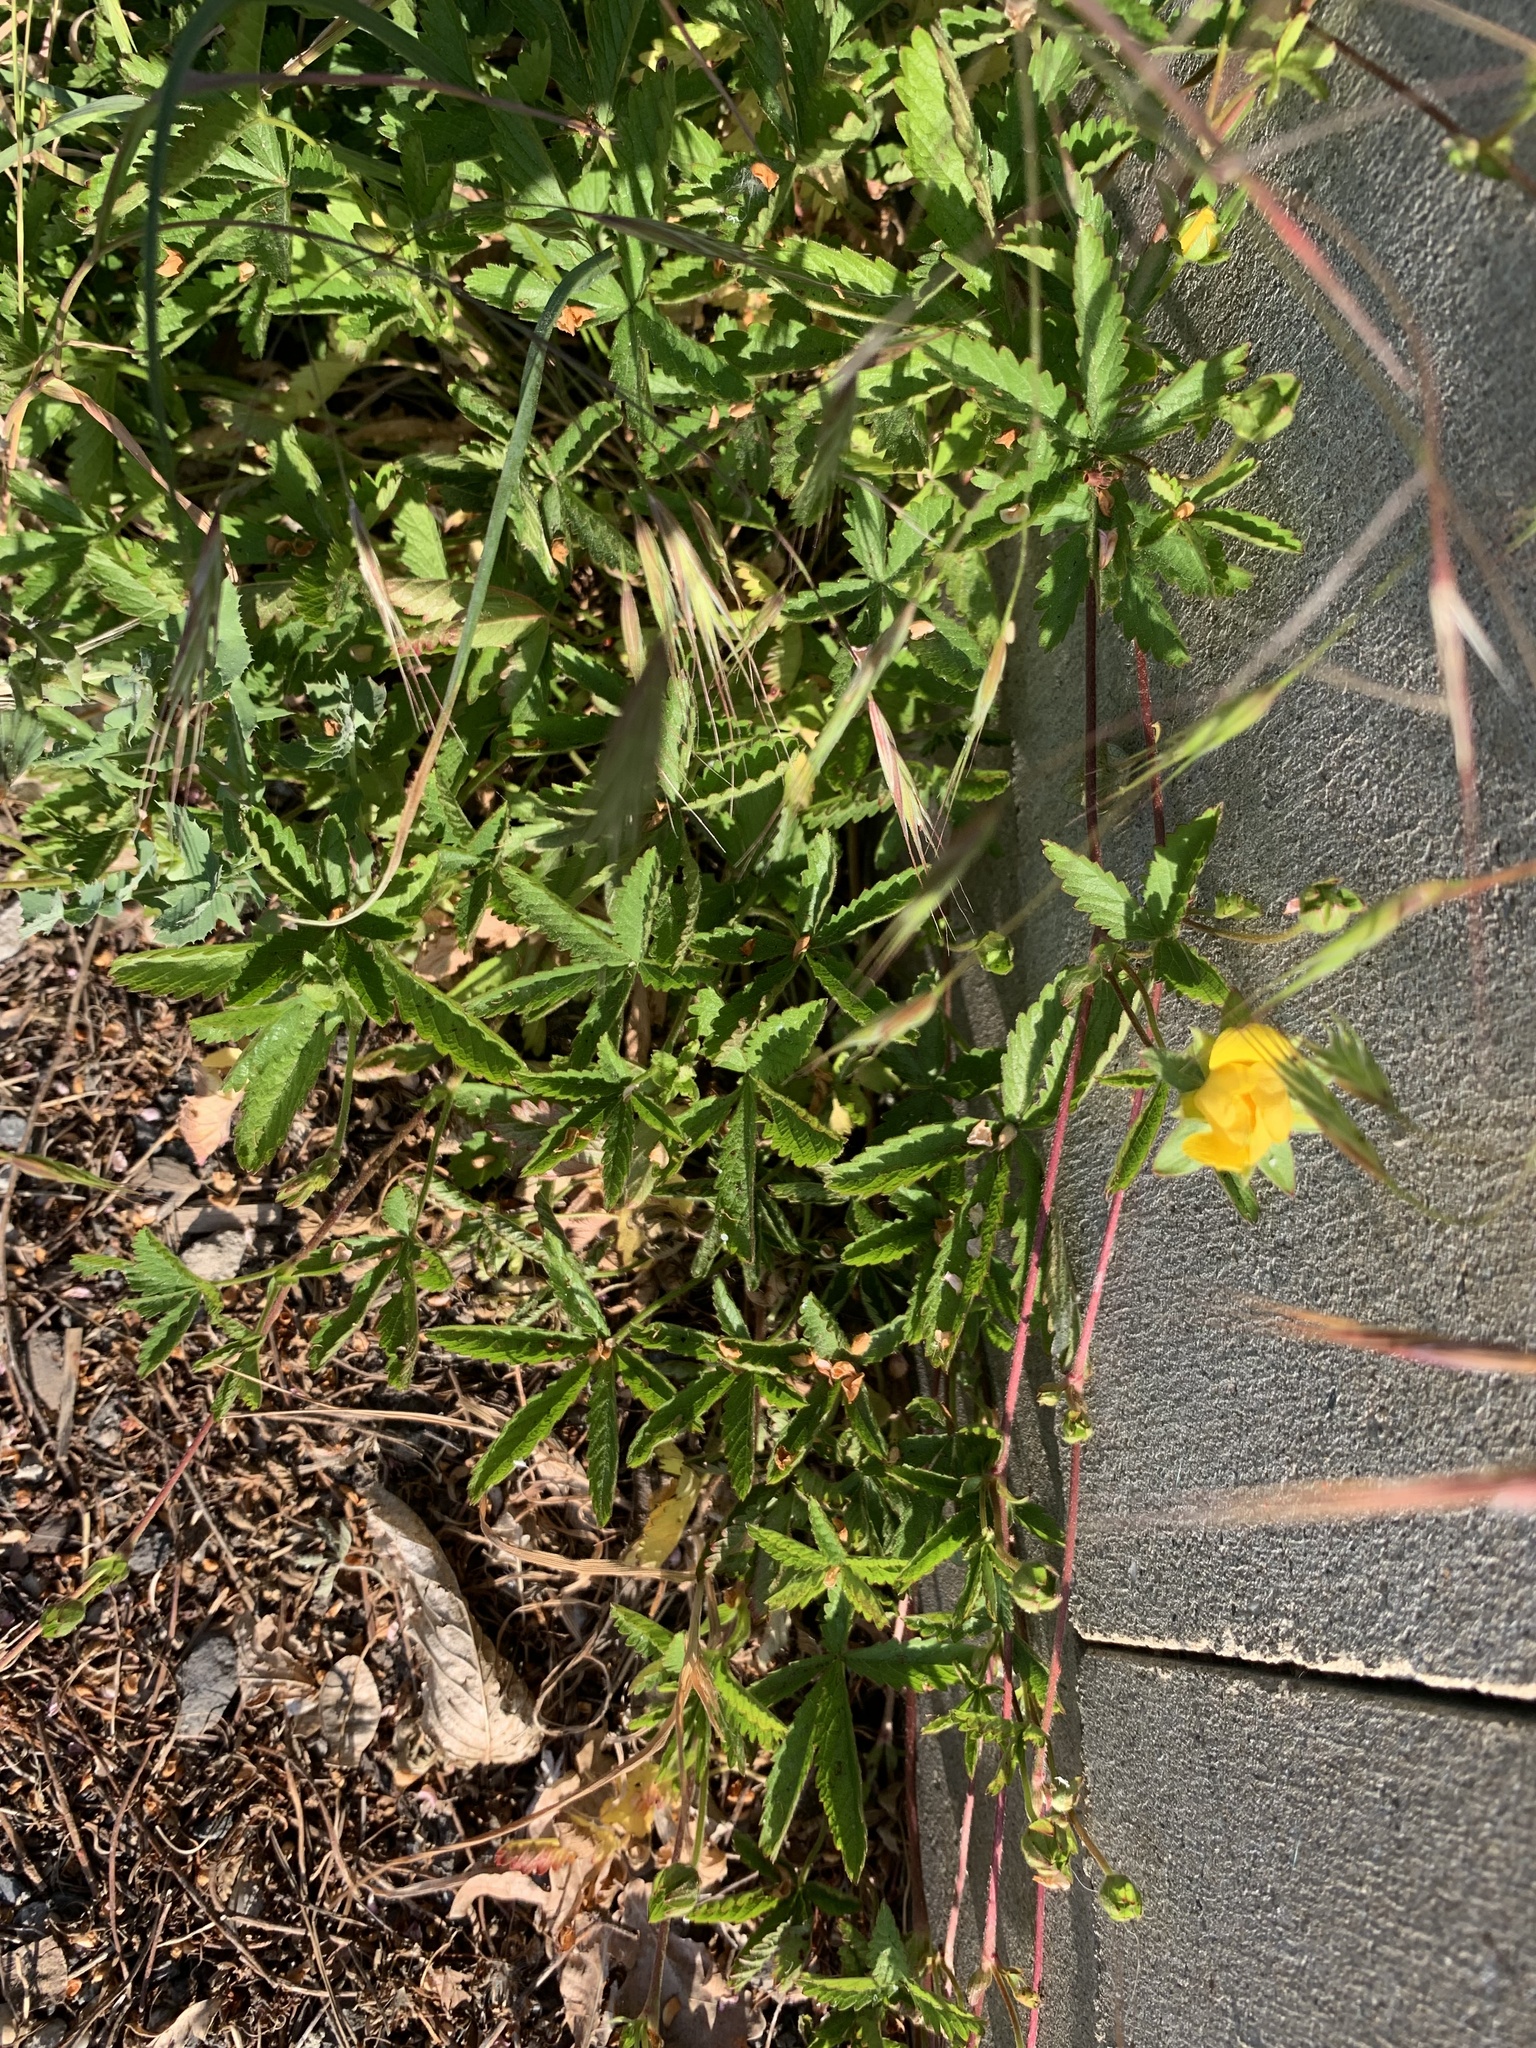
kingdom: Plantae
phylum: Tracheophyta
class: Magnoliopsida
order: Rosales
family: Rosaceae
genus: Potentilla
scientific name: Potentilla reptans
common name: Creeping cinquefoil
